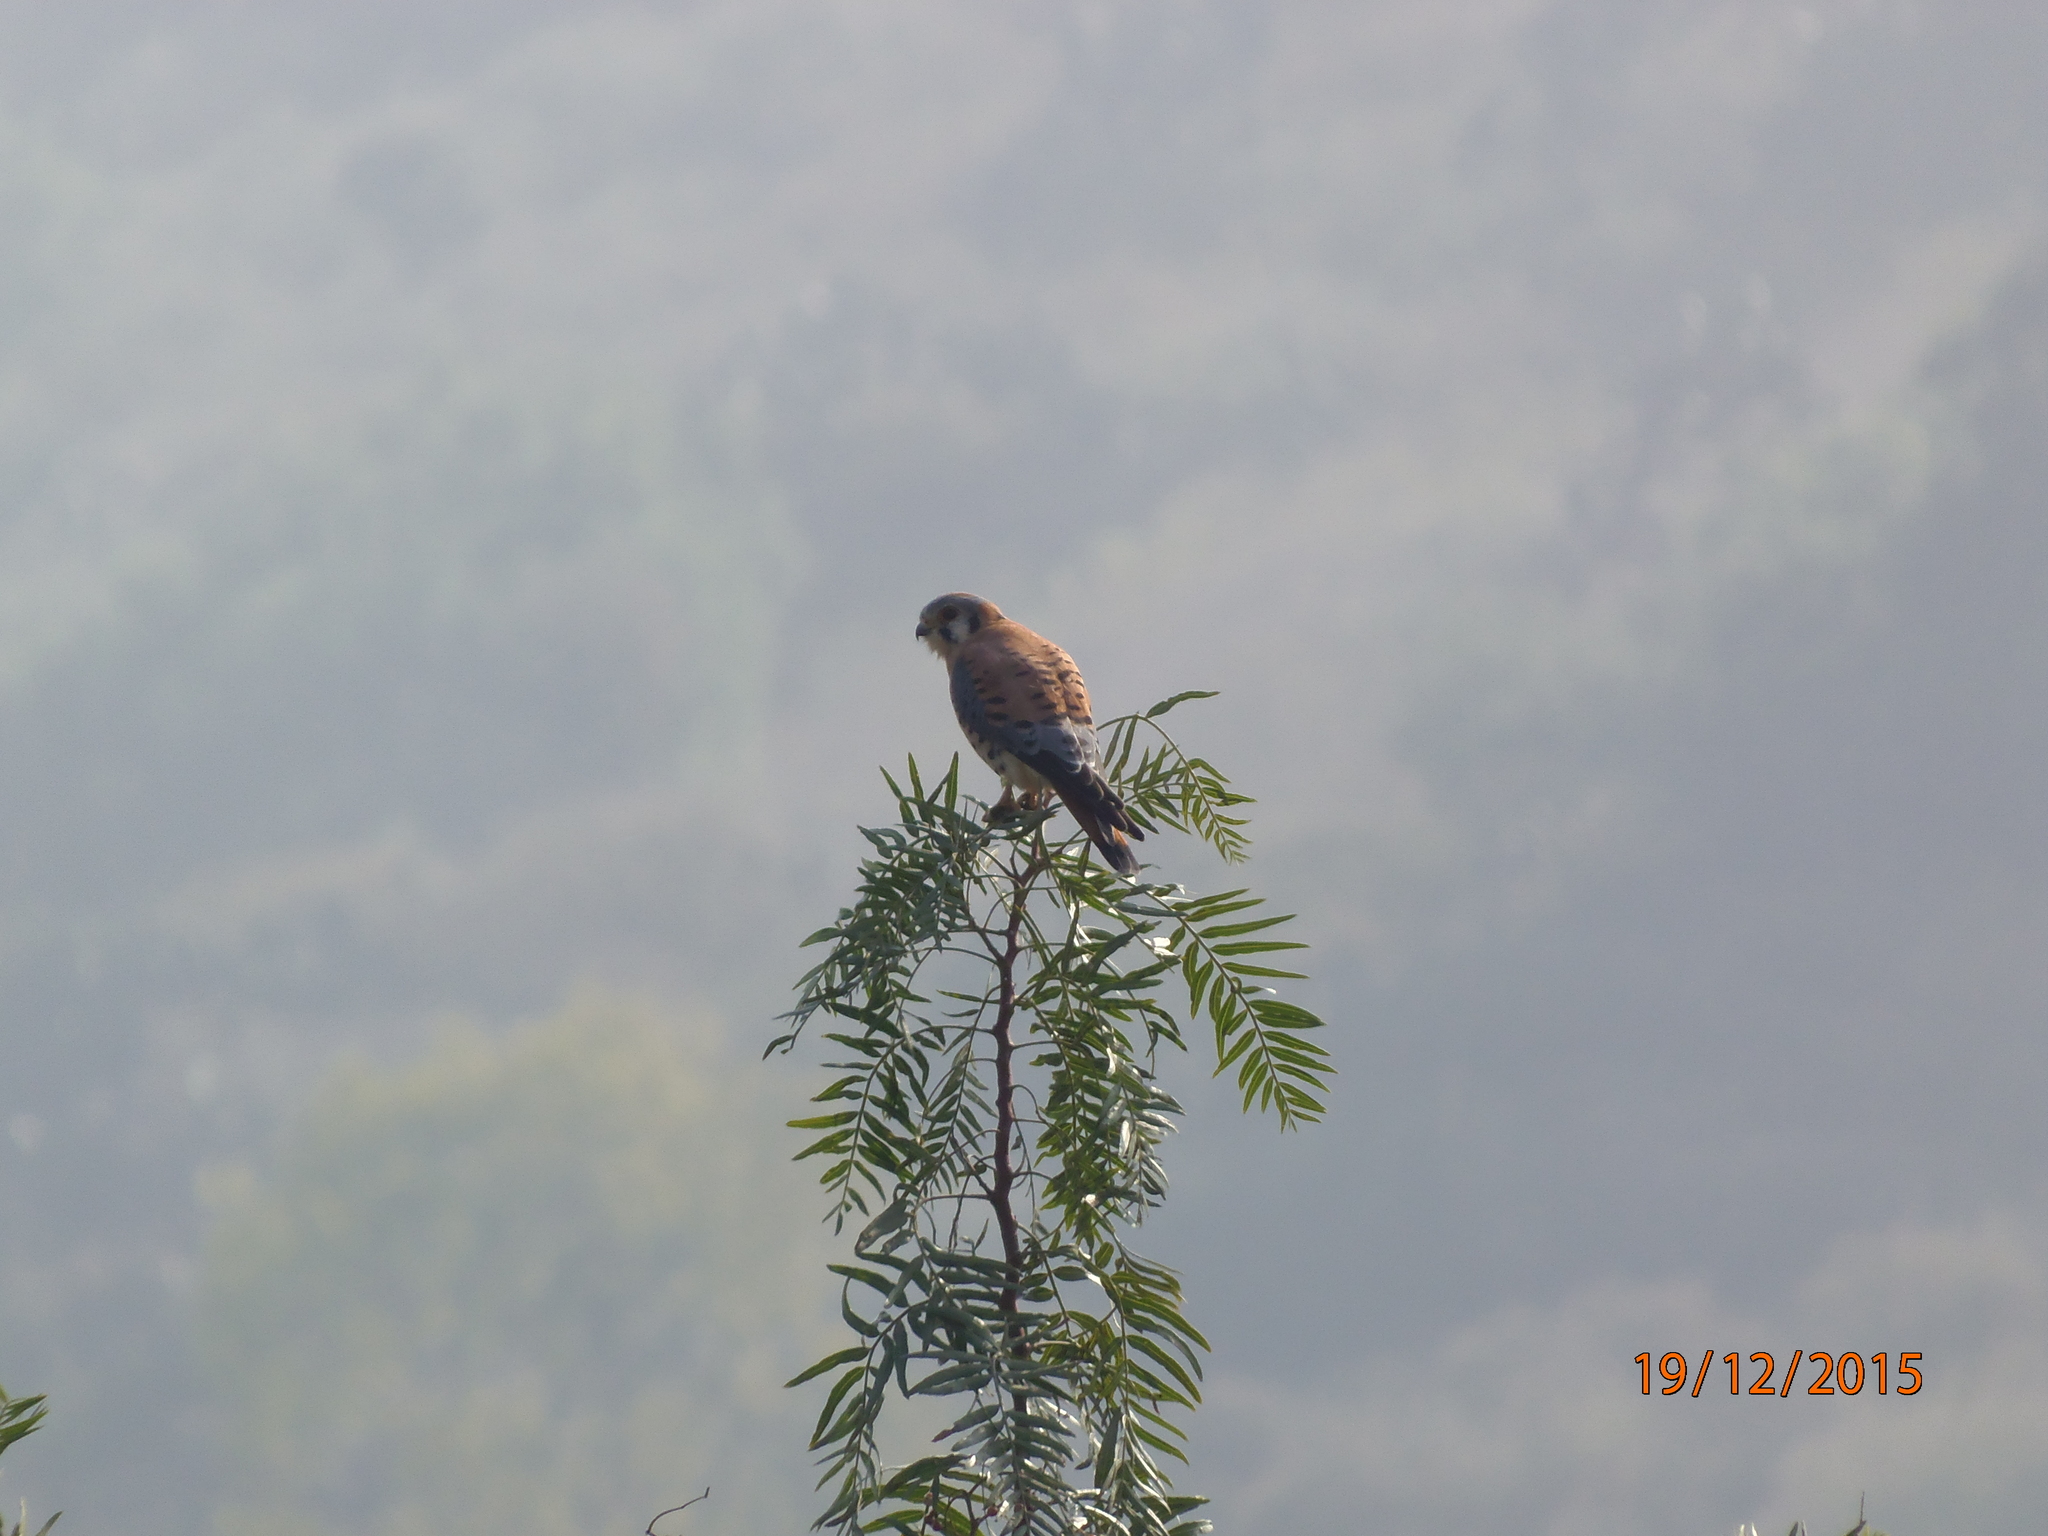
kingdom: Animalia
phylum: Chordata
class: Aves
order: Falconiformes
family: Falconidae
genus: Falco
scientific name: Falco sparverius
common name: American kestrel
